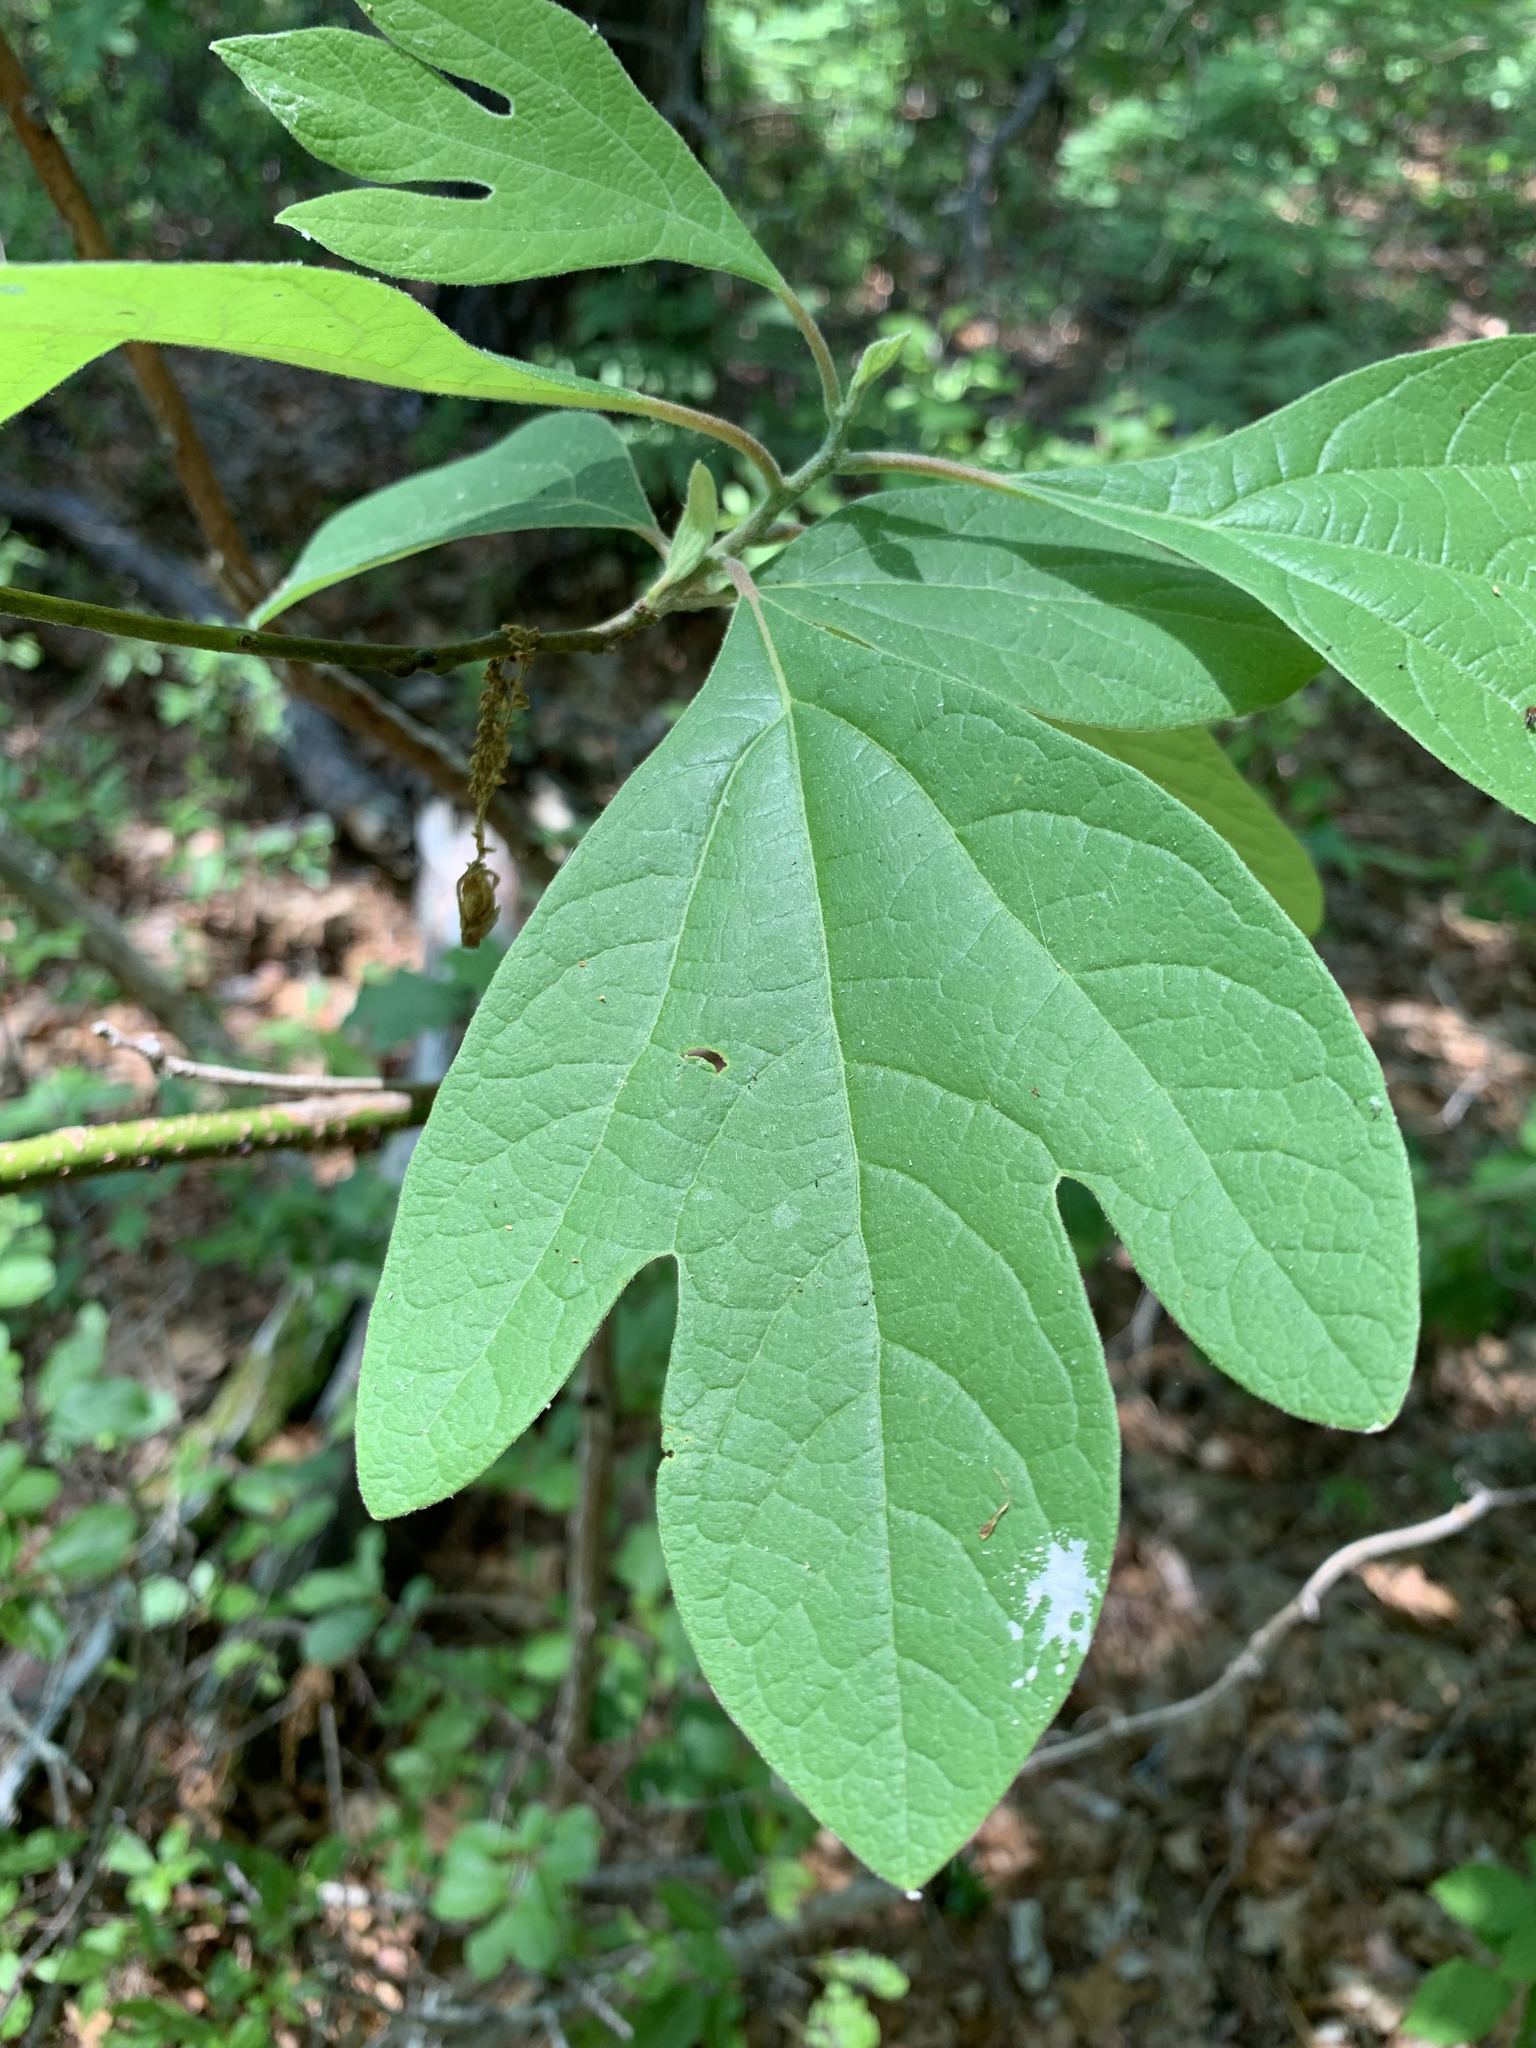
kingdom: Plantae
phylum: Tracheophyta
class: Magnoliopsida
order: Laurales
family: Lauraceae
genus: Sassafras
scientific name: Sassafras albidum
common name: Sassafras
